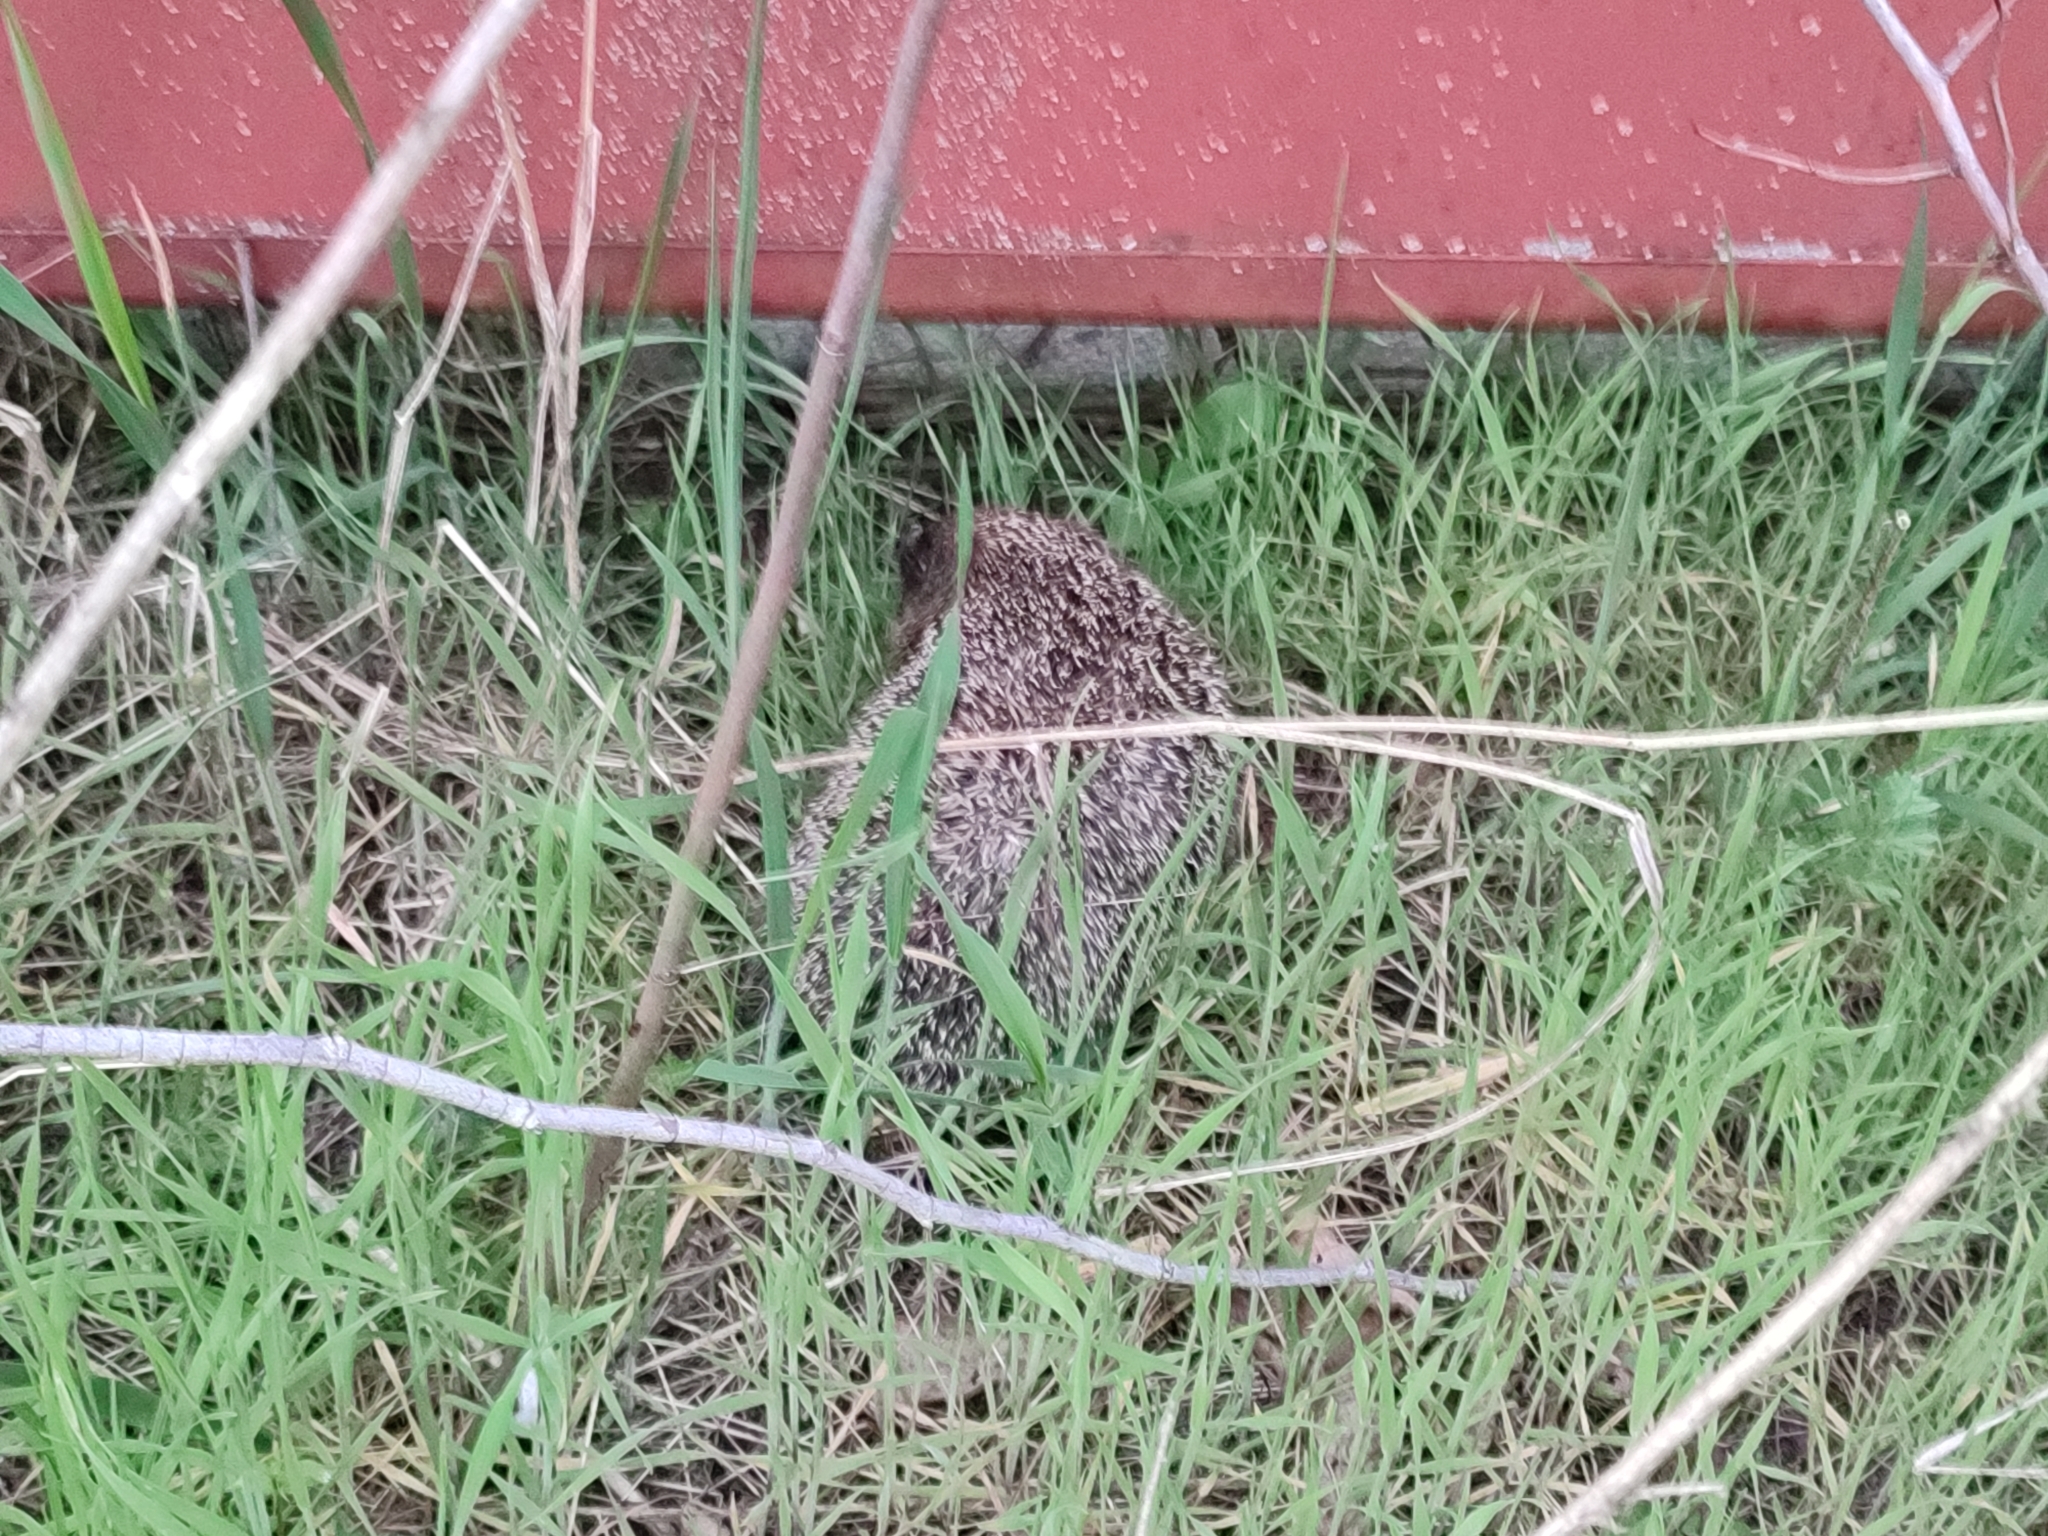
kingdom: Animalia
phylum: Chordata
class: Mammalia
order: Erinaceomorpha
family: Erinaceidae
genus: Erinaceus
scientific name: Erinaceus roumanicus
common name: Northern white-breasted hedgehog
